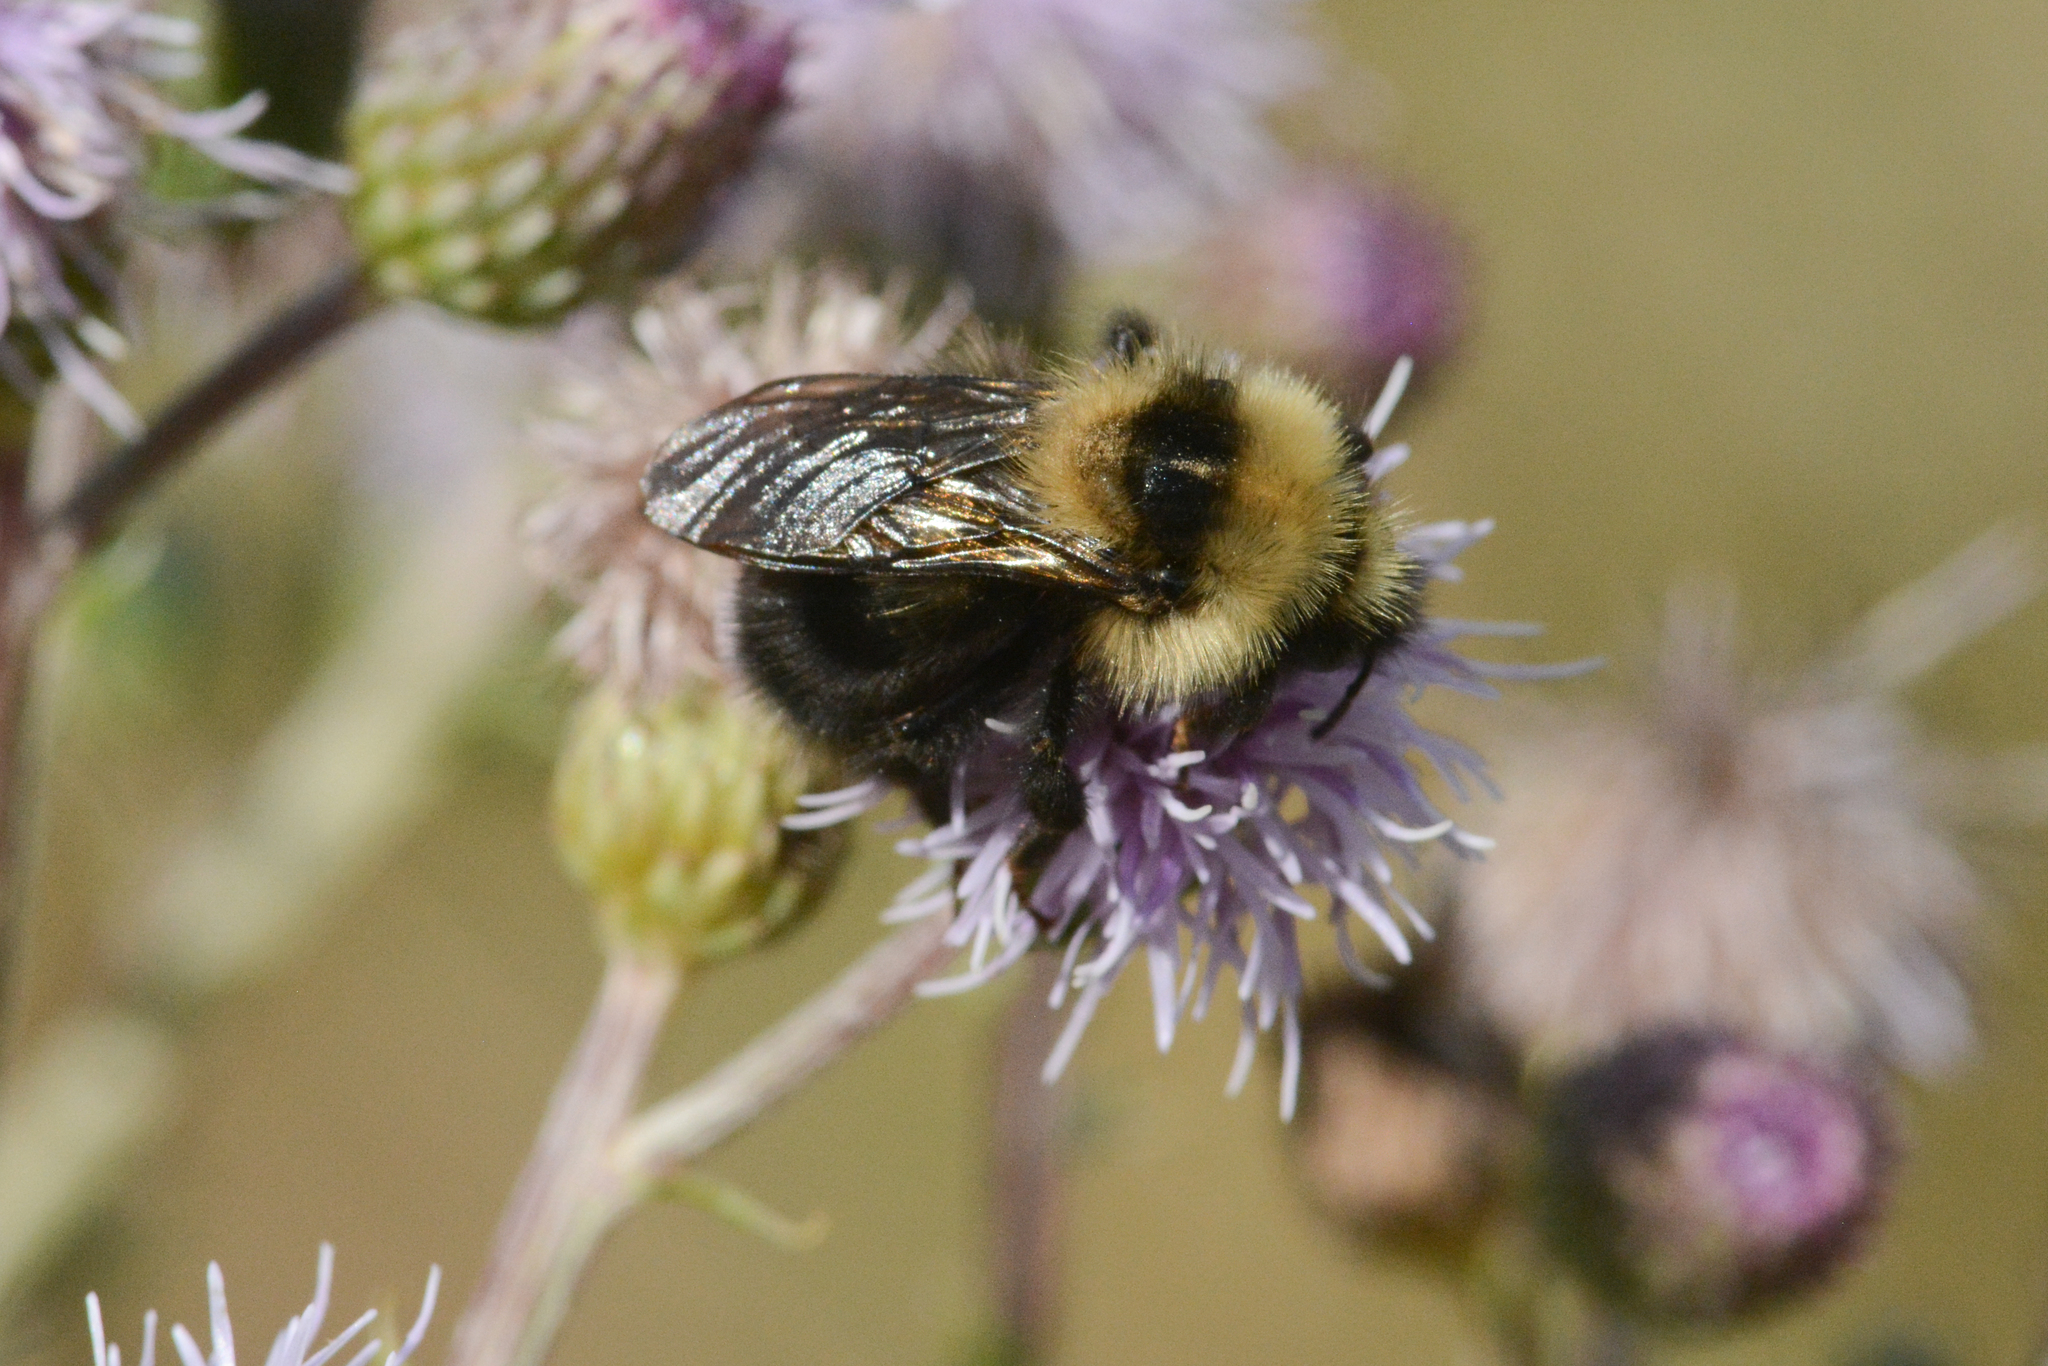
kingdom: Animalia
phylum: Arthropoda
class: Insecta
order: Hymenoptera
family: Apidae
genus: Bombus
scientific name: Bombus flavidus
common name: Fernald cuckoo bumble bee
